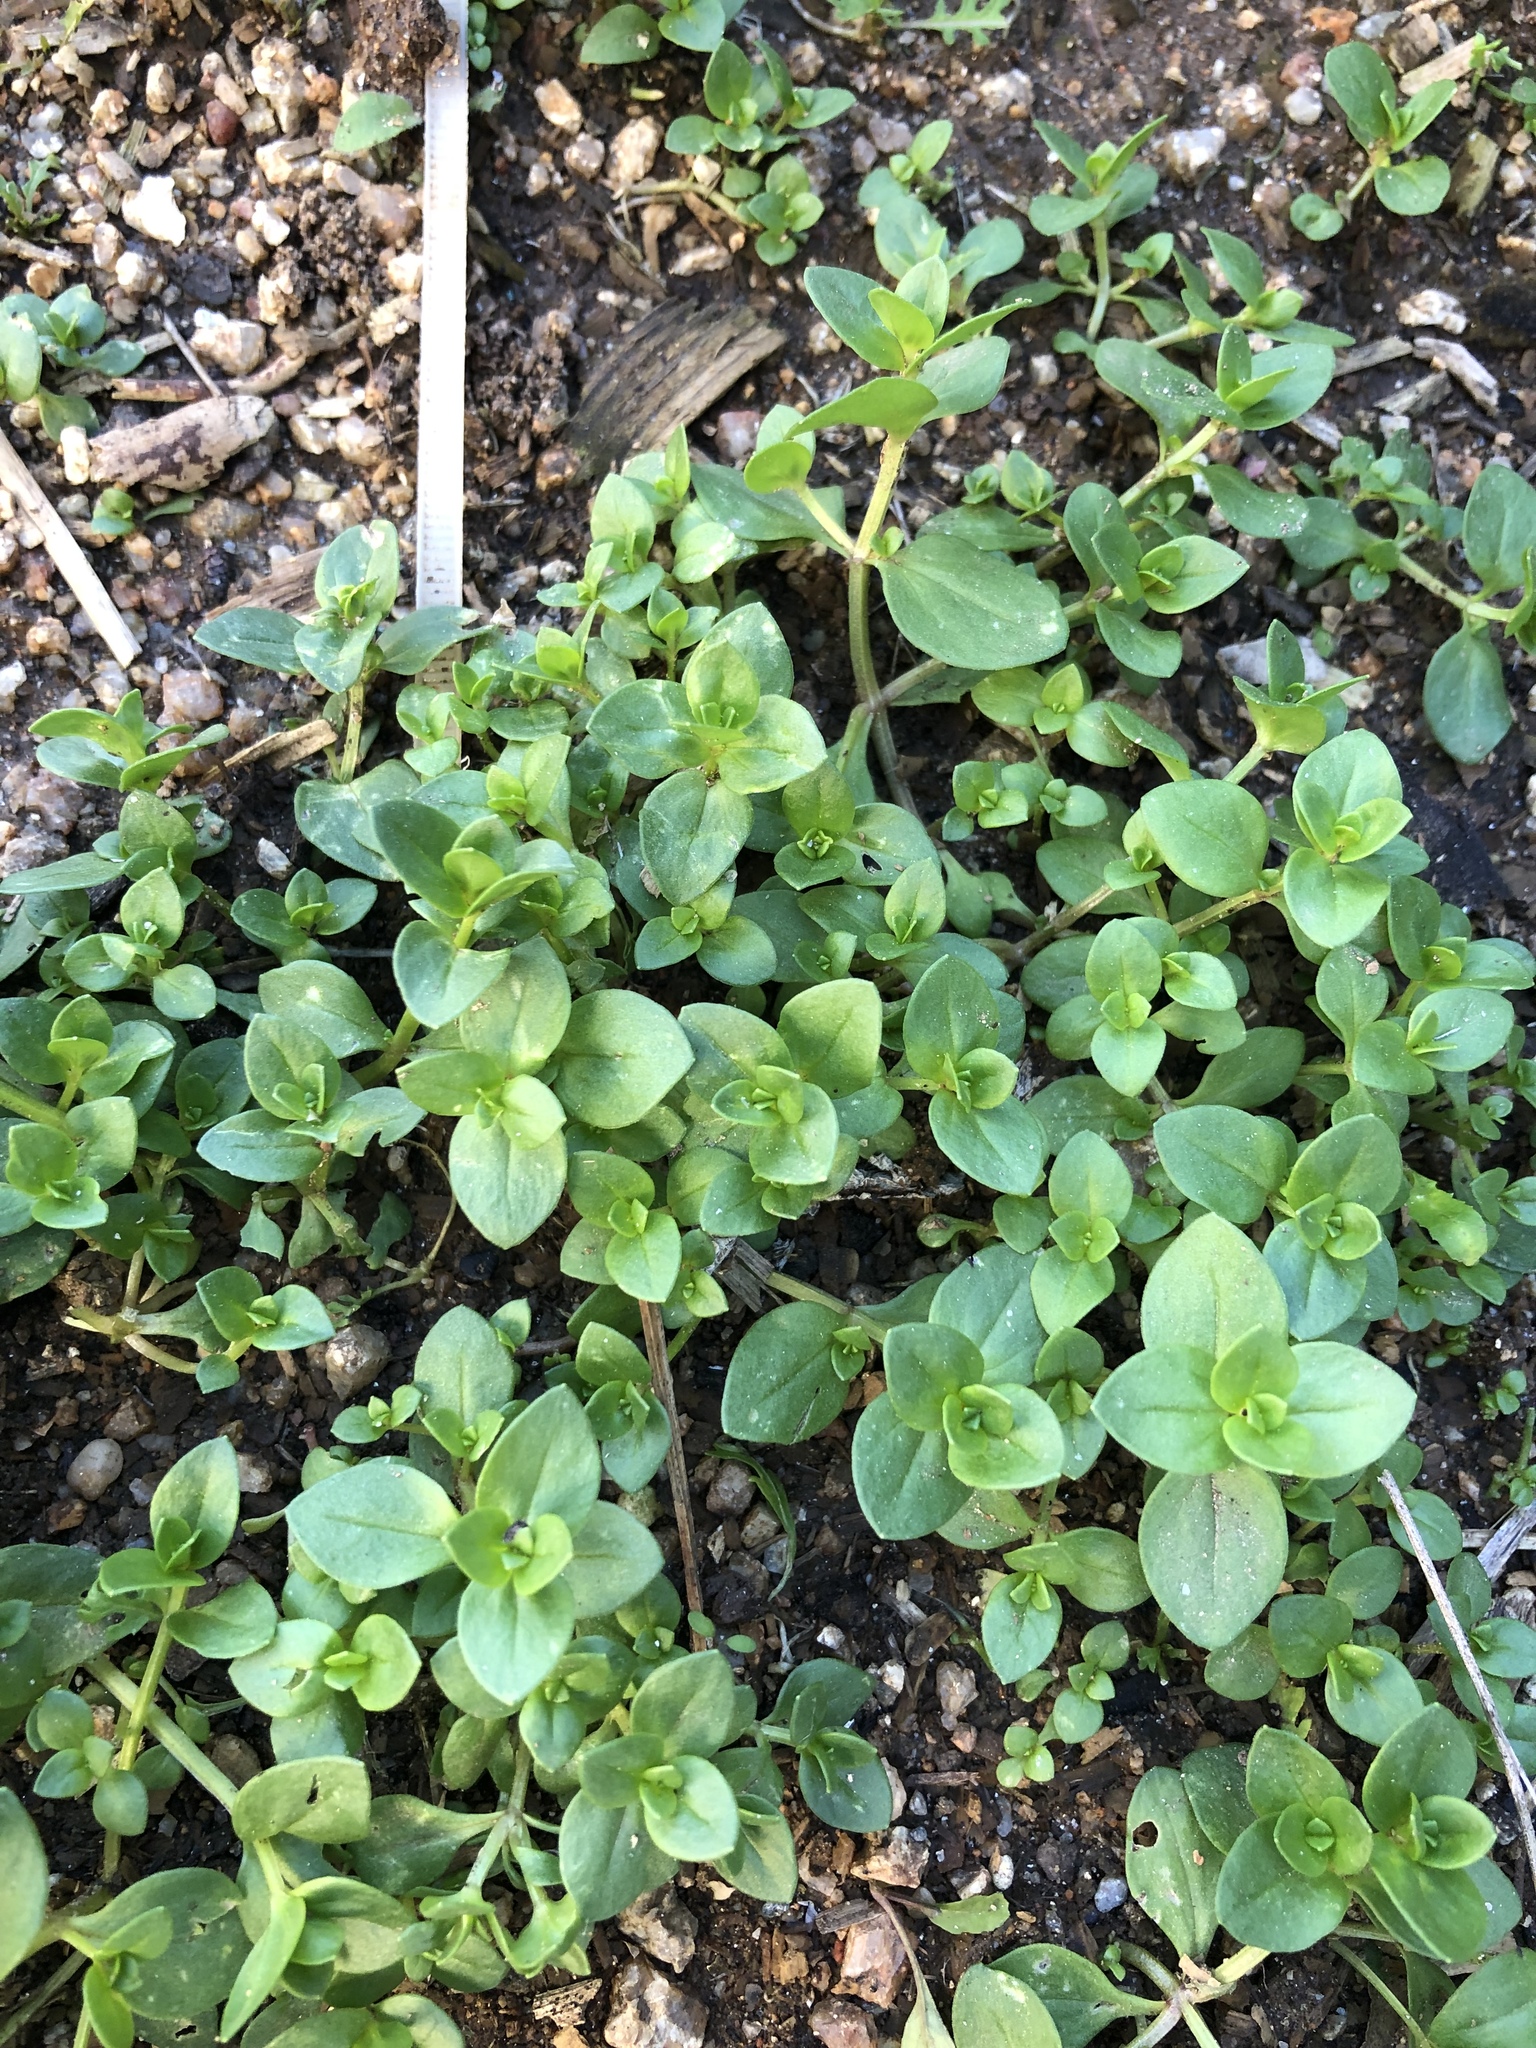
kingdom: Plantae
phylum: Tracheophyta
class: Magnoliopsida
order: Ericales
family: Primulaceae
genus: Lysimachia
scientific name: Lysimachia arvensis
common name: Scarlet pimpernel
